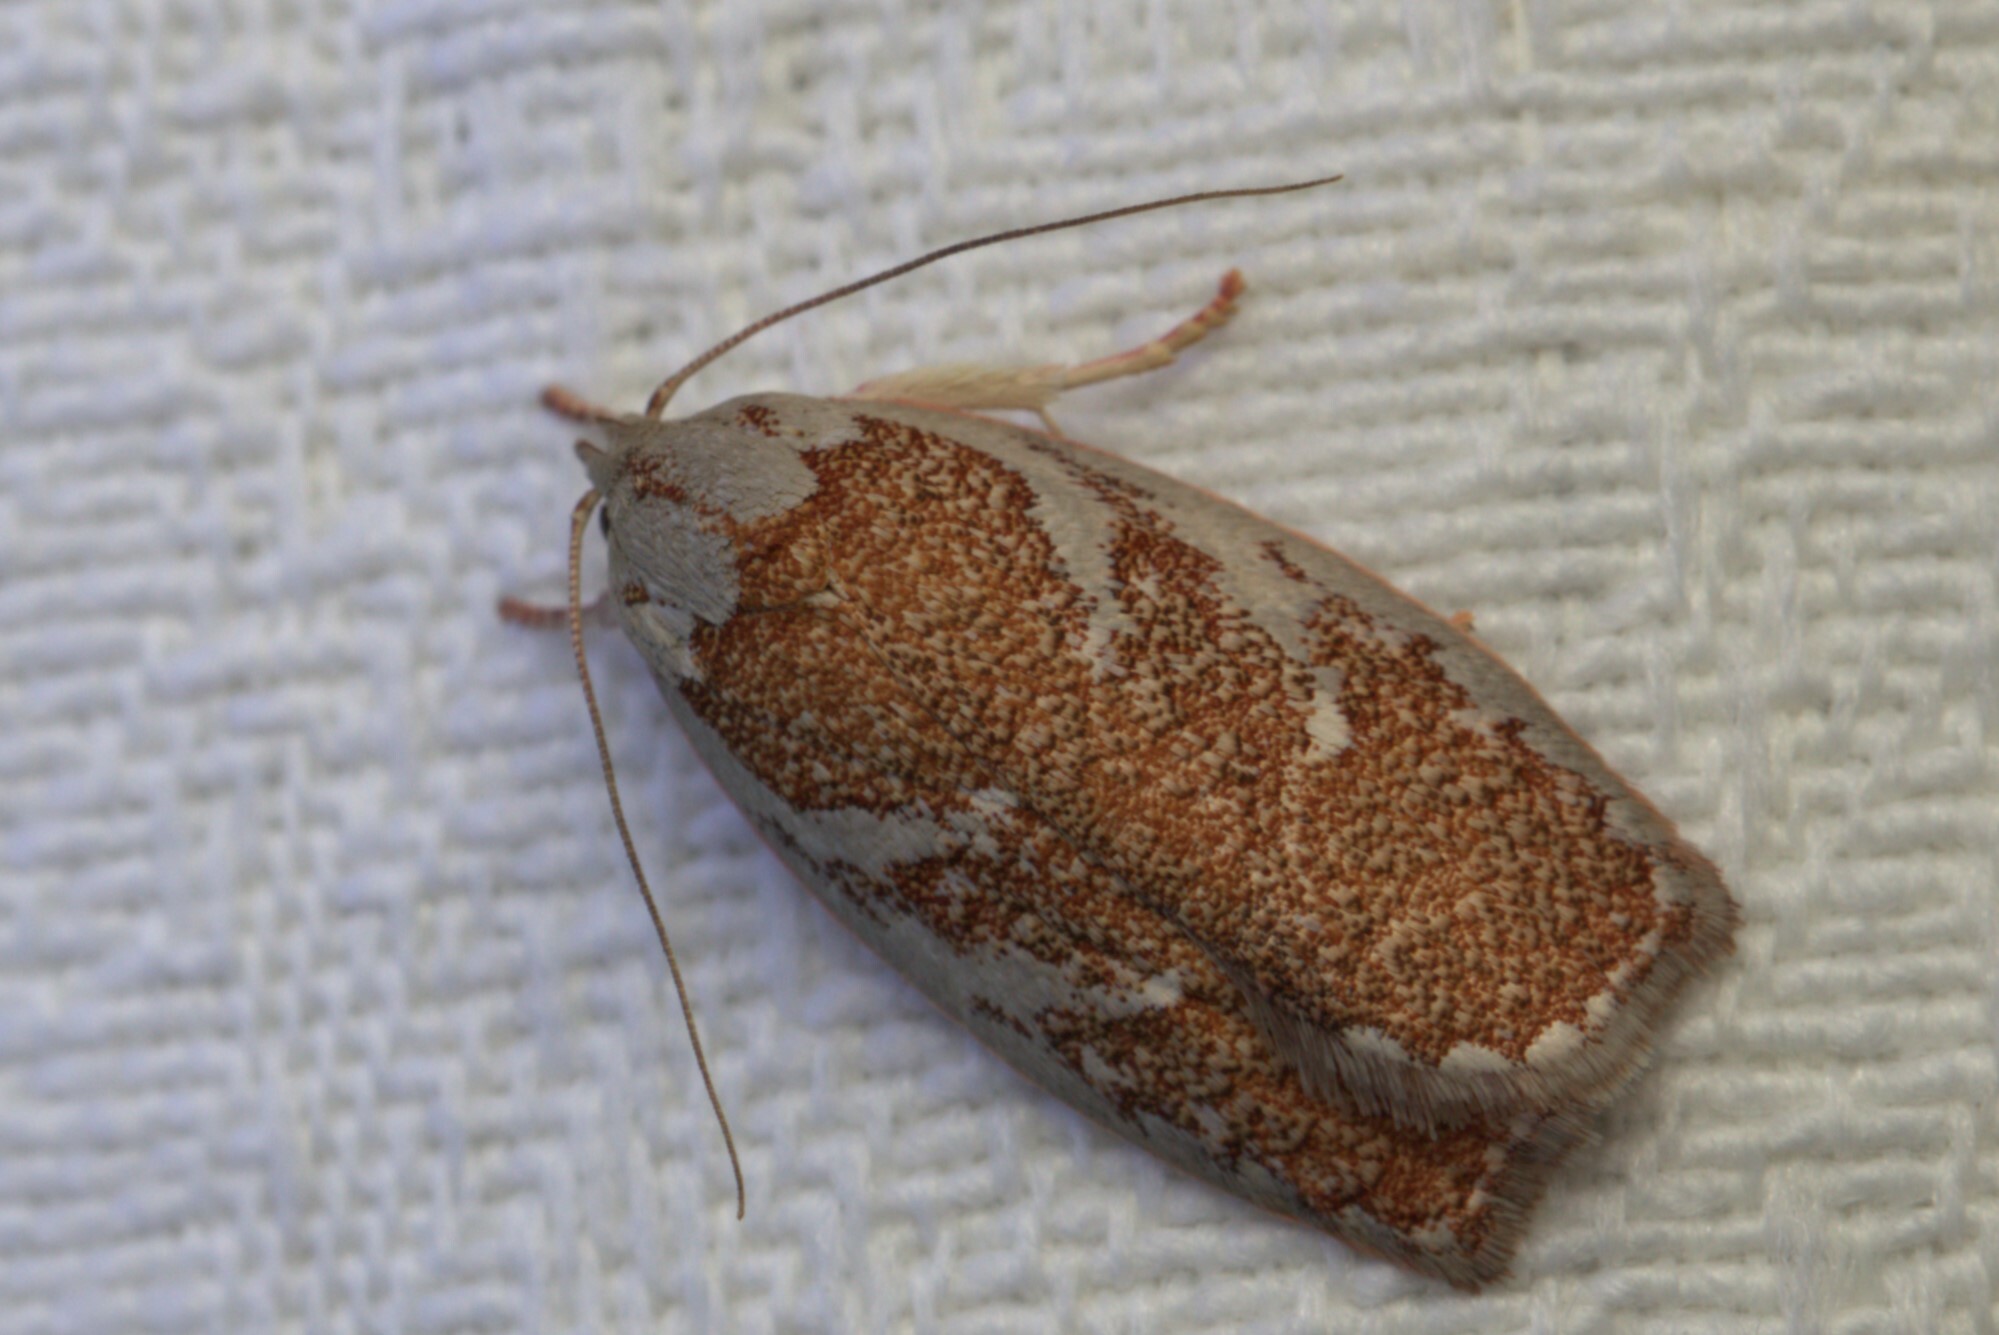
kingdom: Animalia
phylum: Arthropoda
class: Insecta
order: Lepidoptera
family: Oecophoridae
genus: Euchaetis
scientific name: Euchaetis rhizobola
